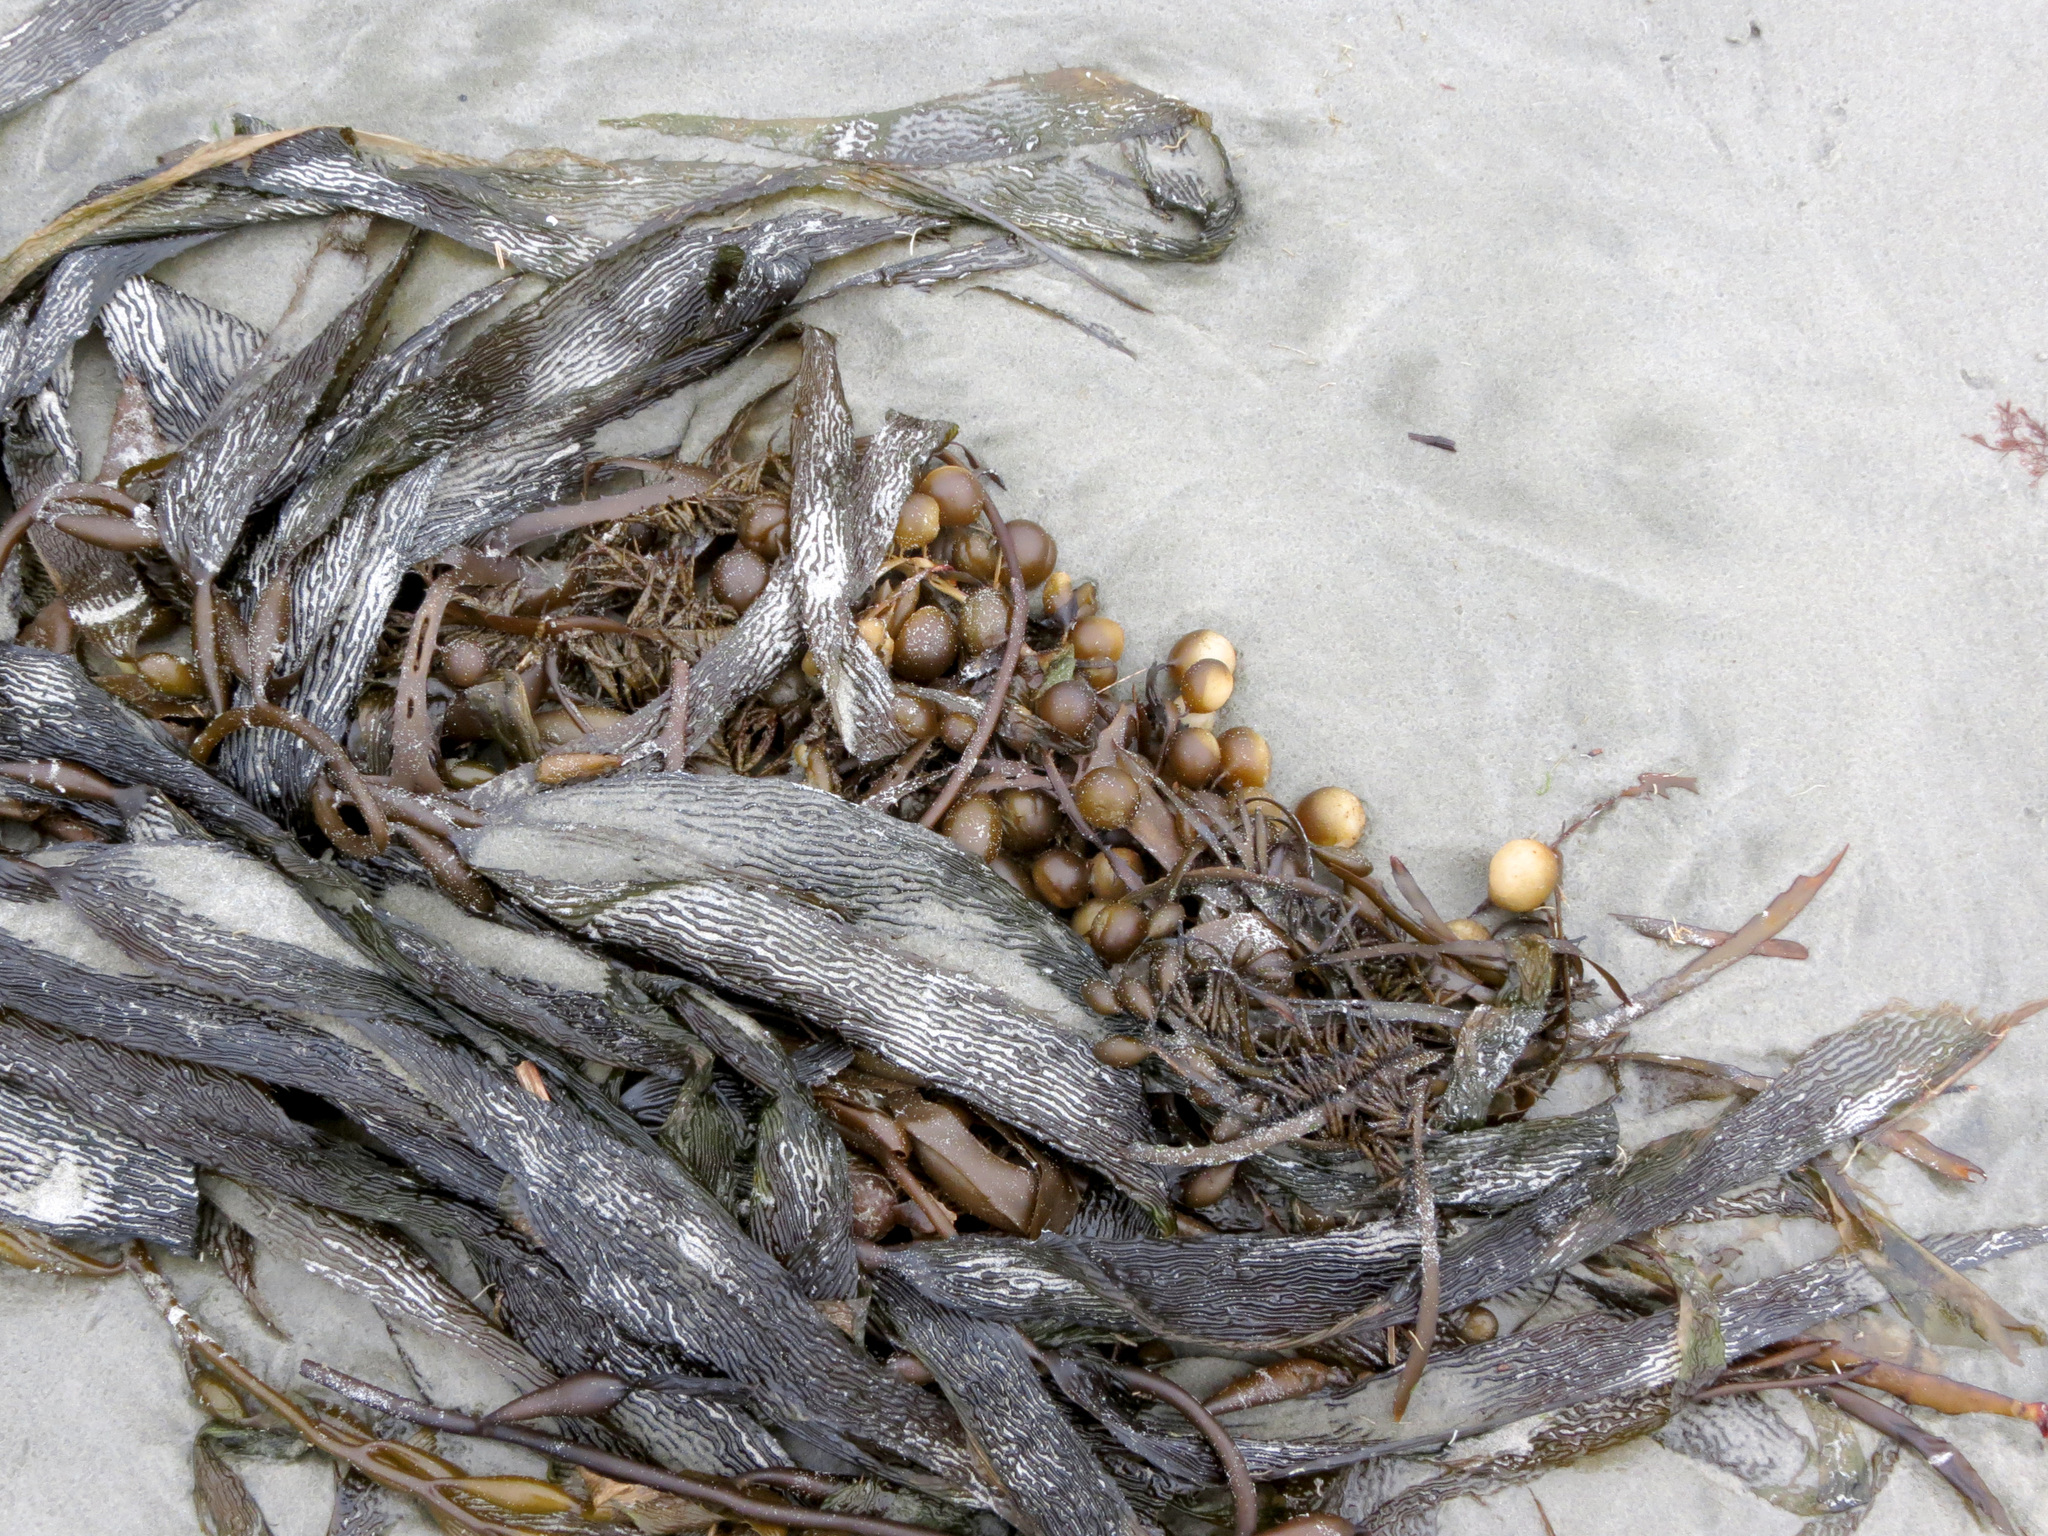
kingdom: Chromista
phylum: Ochrophyta
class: Phaeophyceae
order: Laminariales
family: Laminariaceae
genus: Macrocystis
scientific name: Macrocystis pyrifera
